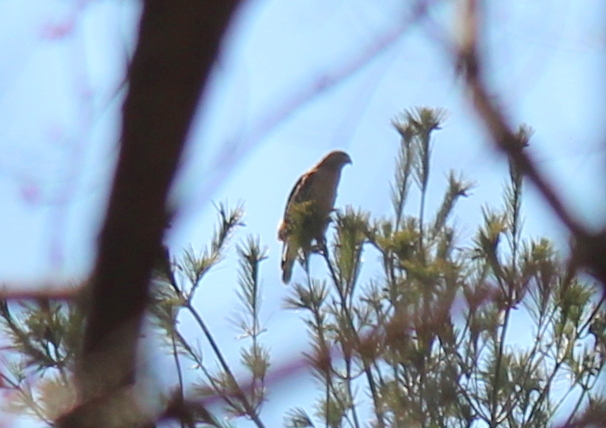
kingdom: Animalia
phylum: Chordata
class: Aves
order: Accipitriformes
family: Accipitridae
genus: Buteo
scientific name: Buteo lineatus
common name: Red-shouldered hawk
